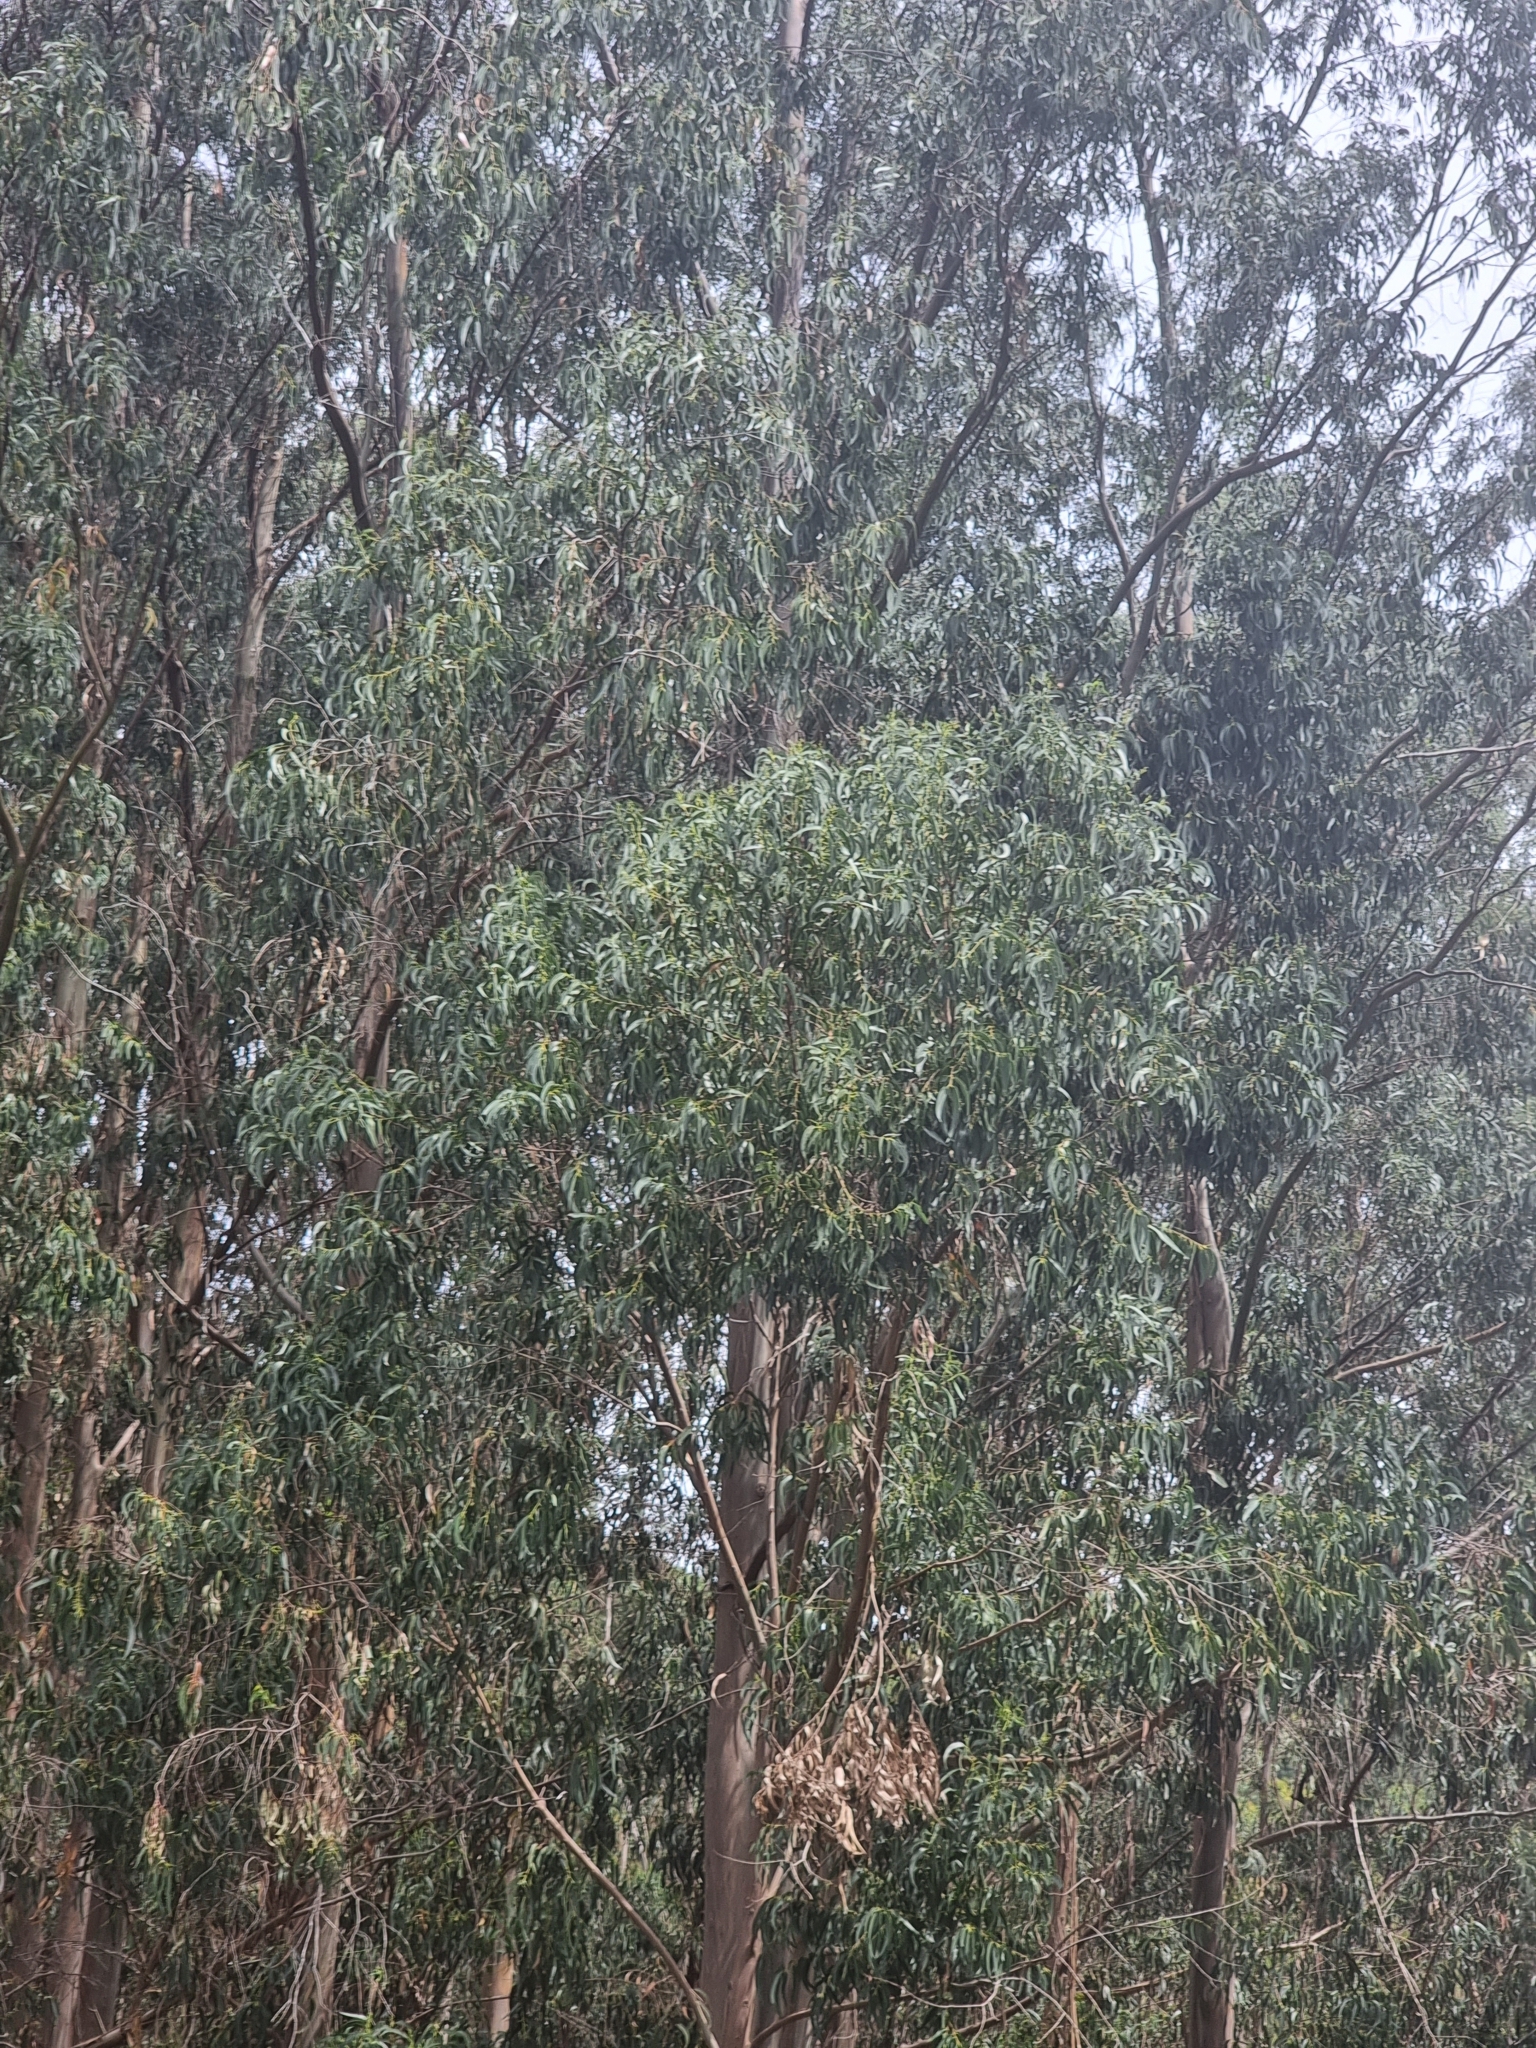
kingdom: Plantae
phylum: Tracheophyta
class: Magnoliopsida
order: Myrtales
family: Myrtaceae
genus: Eucalyptus
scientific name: Eucalyptus globulus
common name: Southern blue-gum
